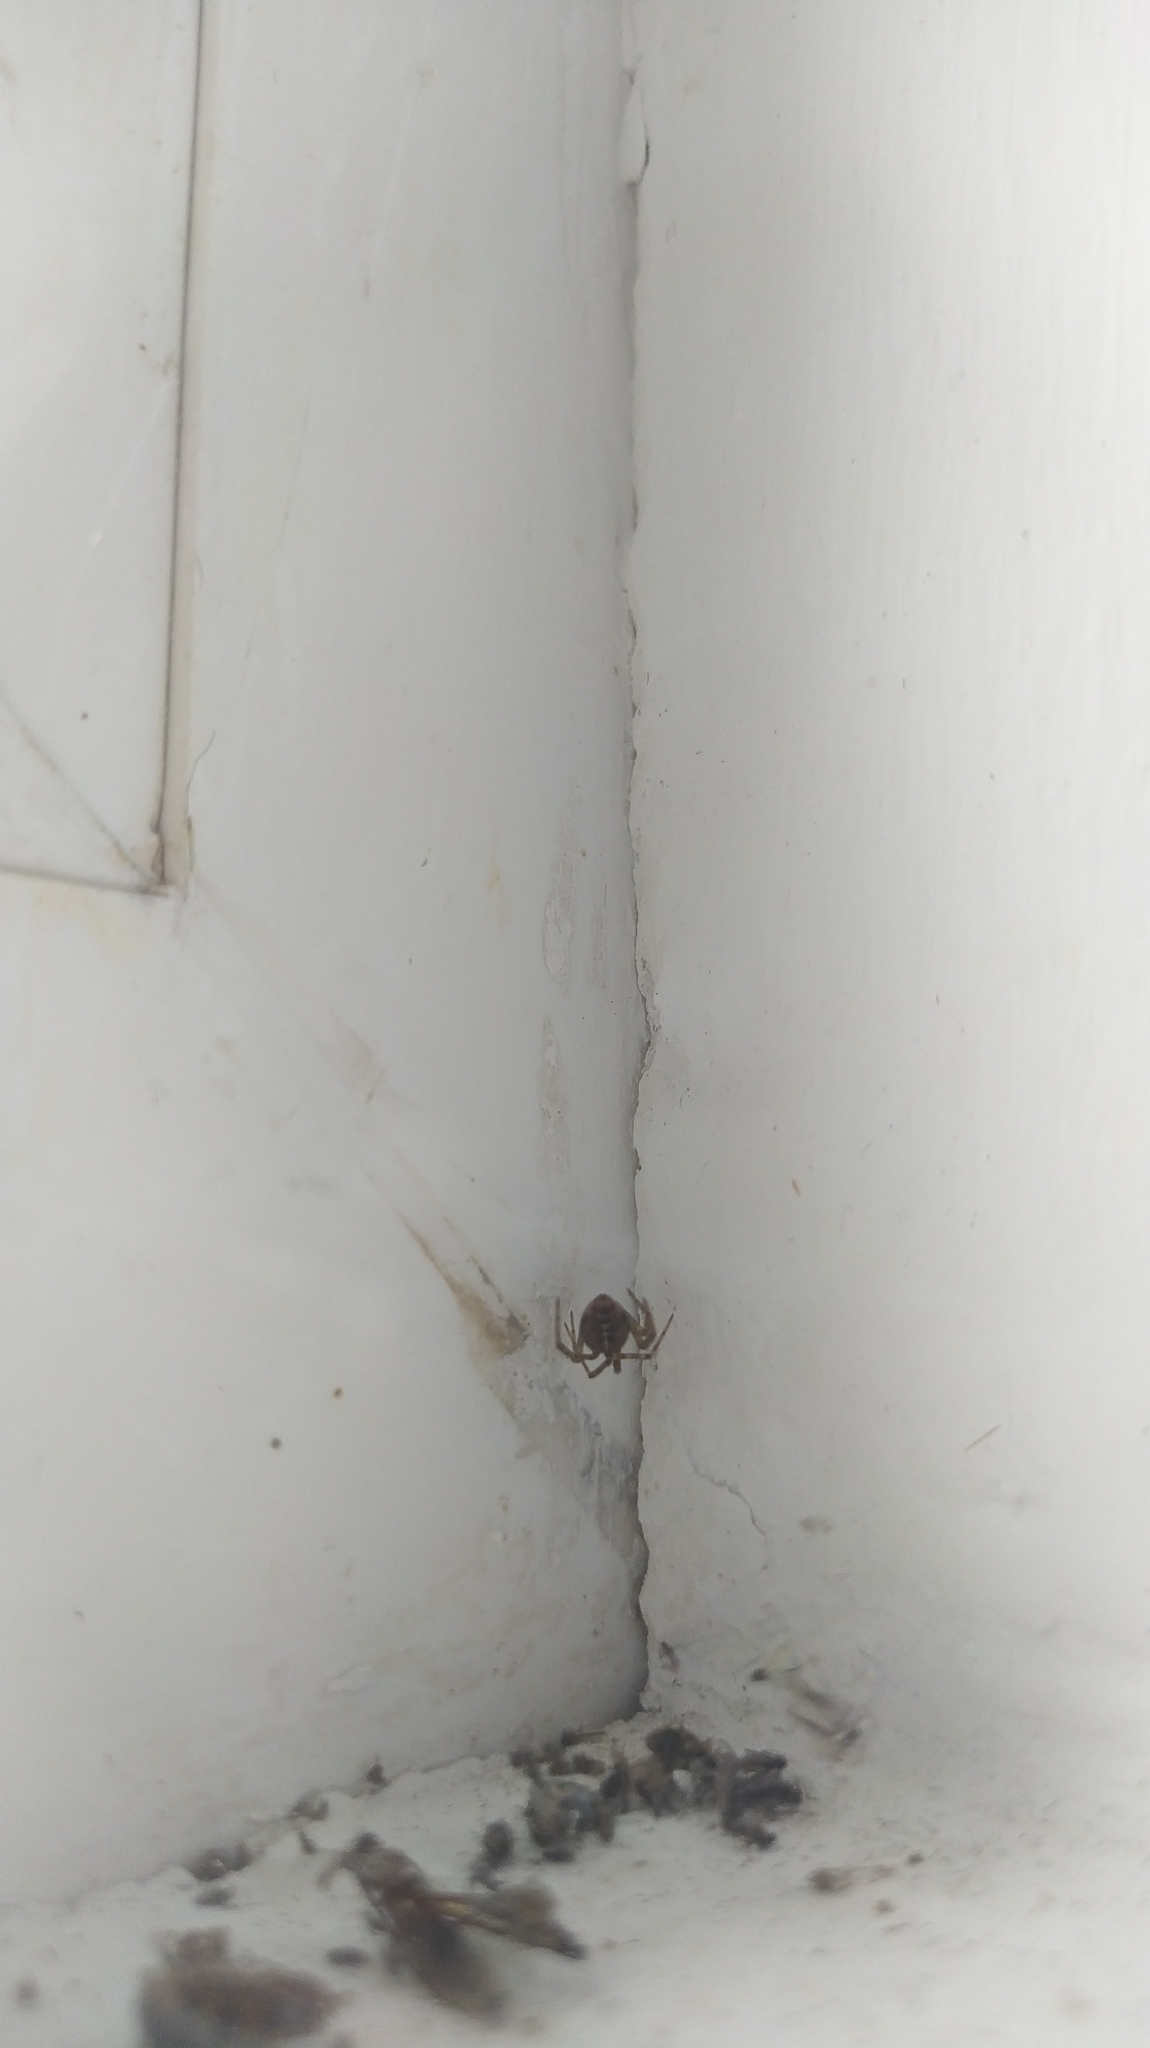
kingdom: Animalia
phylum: Arthropoda
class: Arachnida
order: Araneae
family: Theridiidae
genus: Steatoda
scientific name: Steatoda castanea
